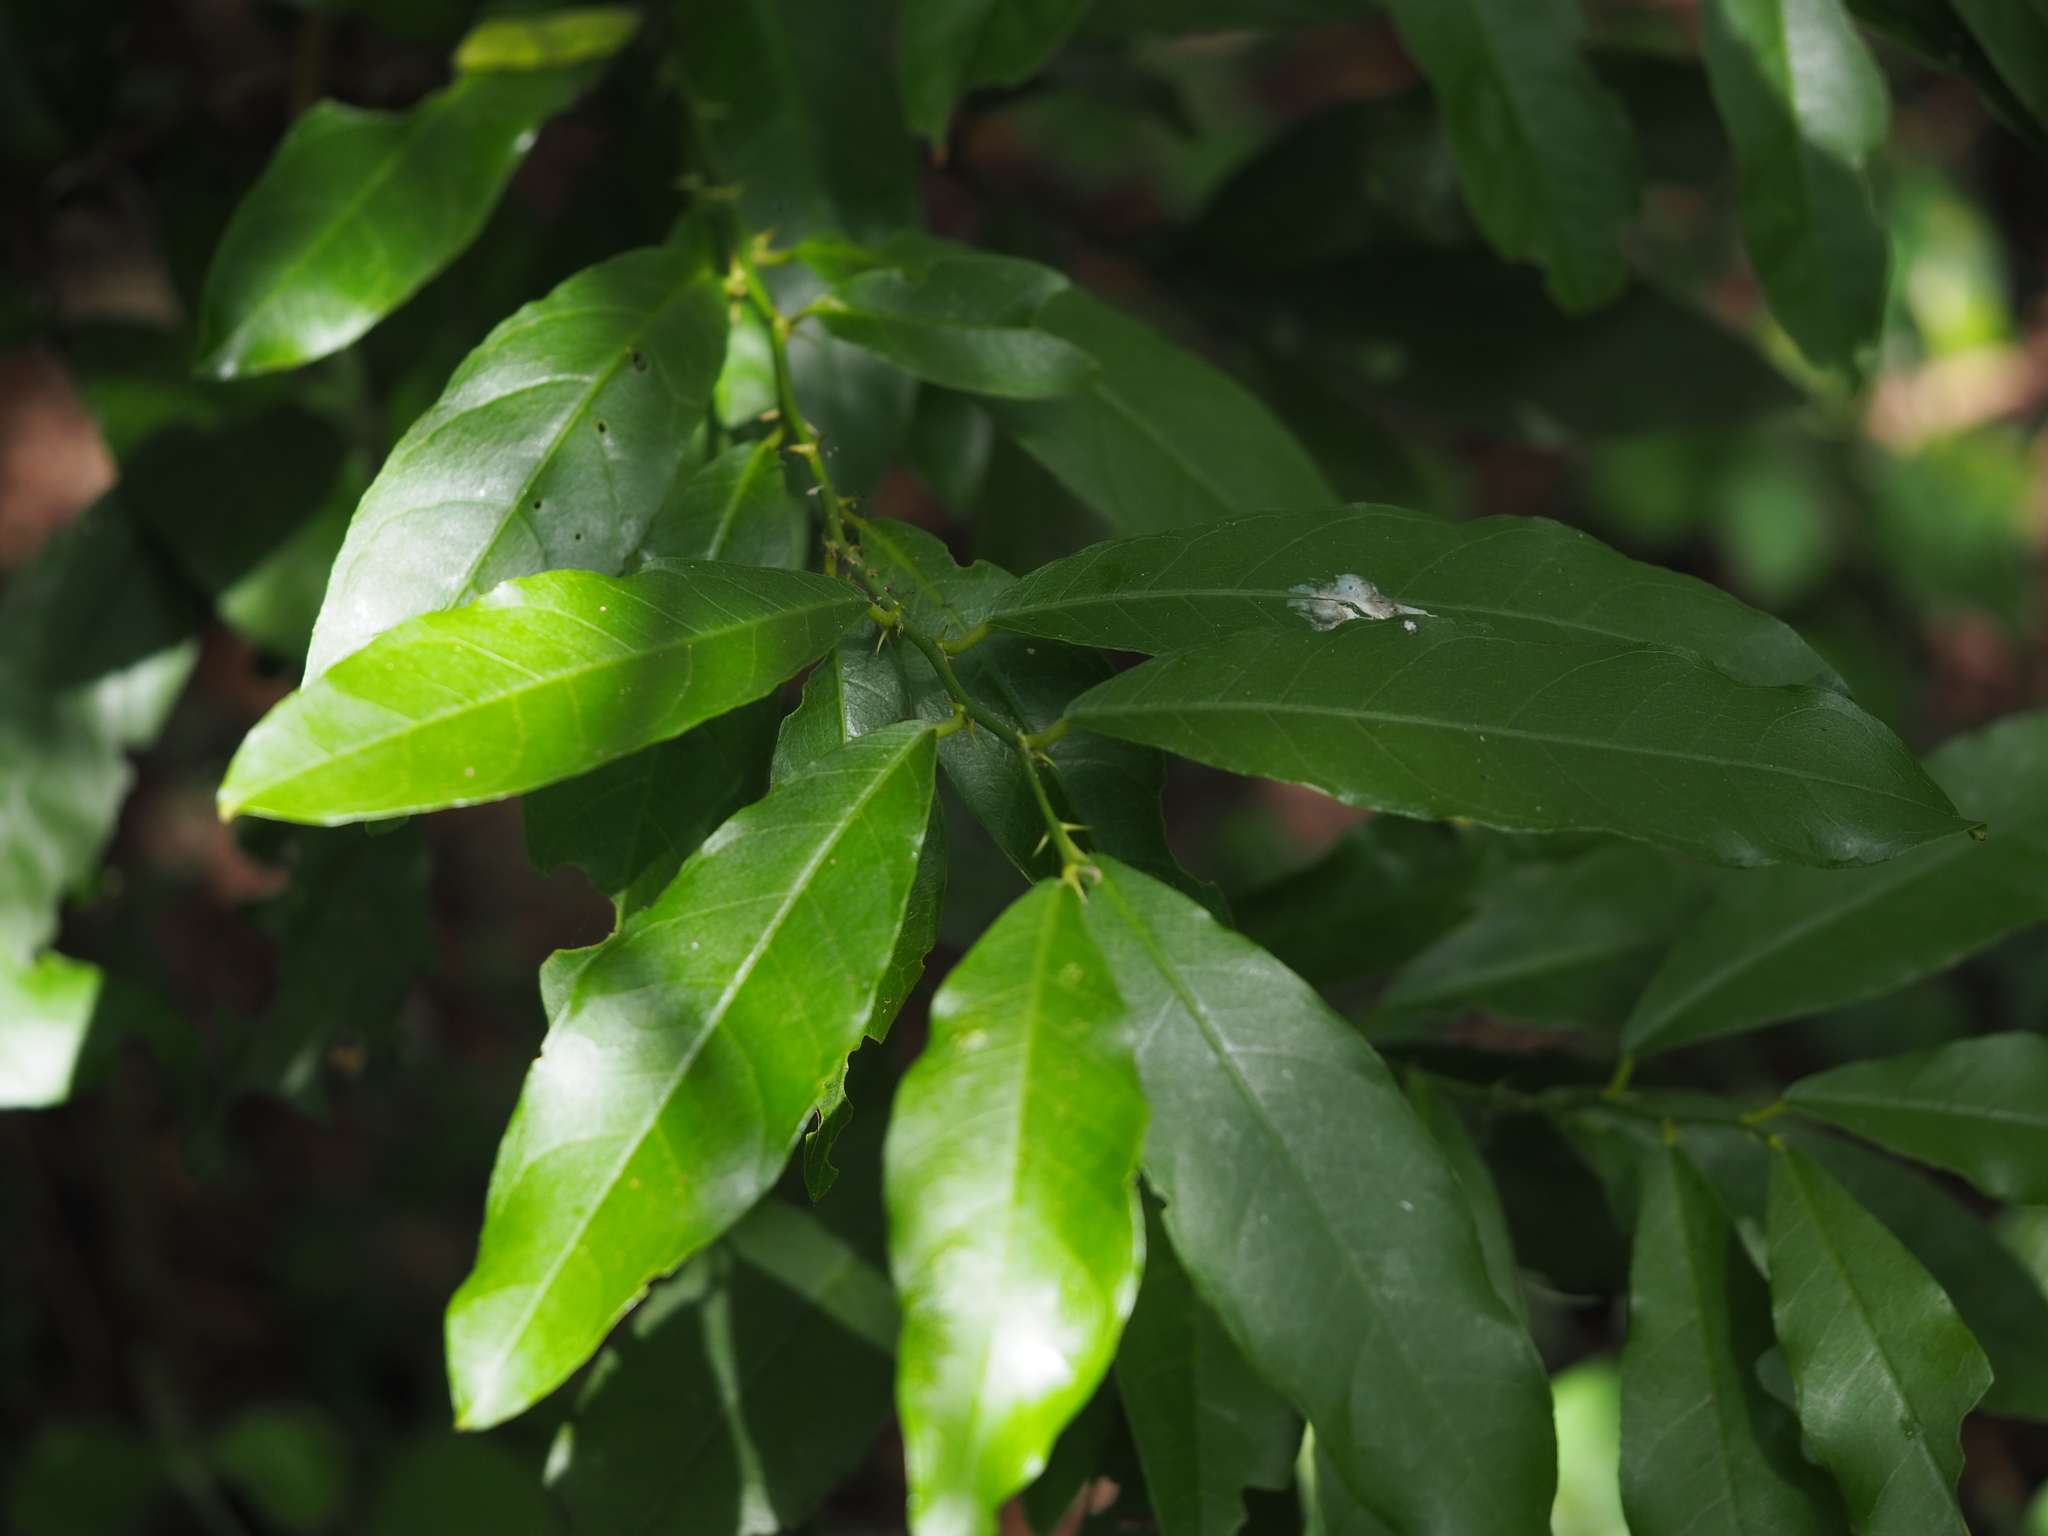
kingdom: Plantae
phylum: Tracheophyta
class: Magnoliopsida
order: Brassicales
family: Capparaceae
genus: Capparis
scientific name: Capparis henryi
